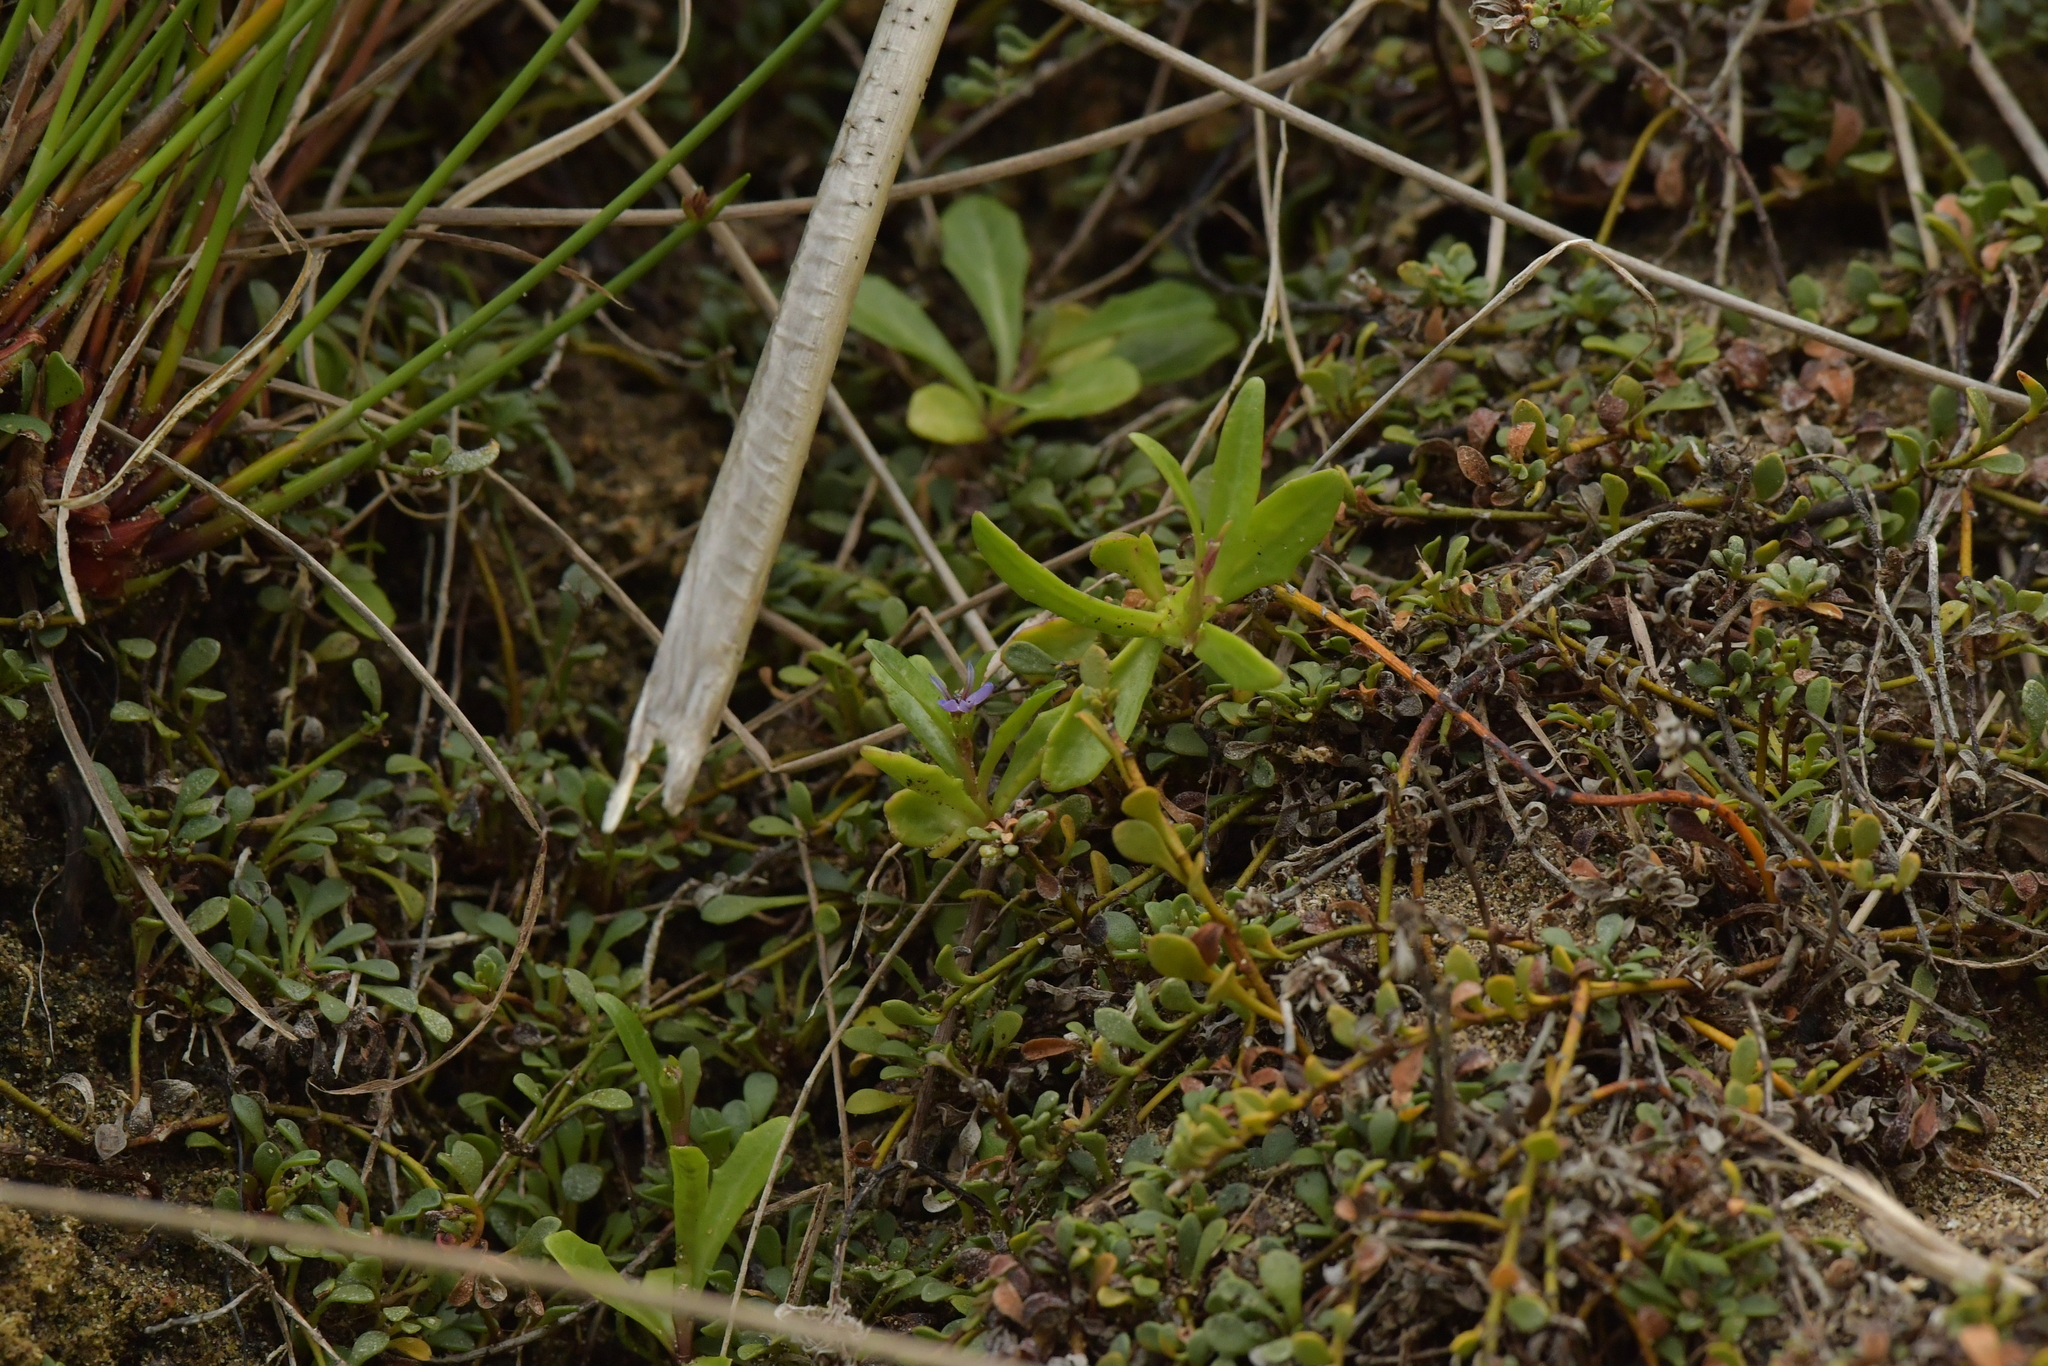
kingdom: Plantae
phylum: Tracheophyta
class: Magnoliopsida
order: Asterales
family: Campanulaceae
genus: Lobelia
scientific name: Lobelia anceps
